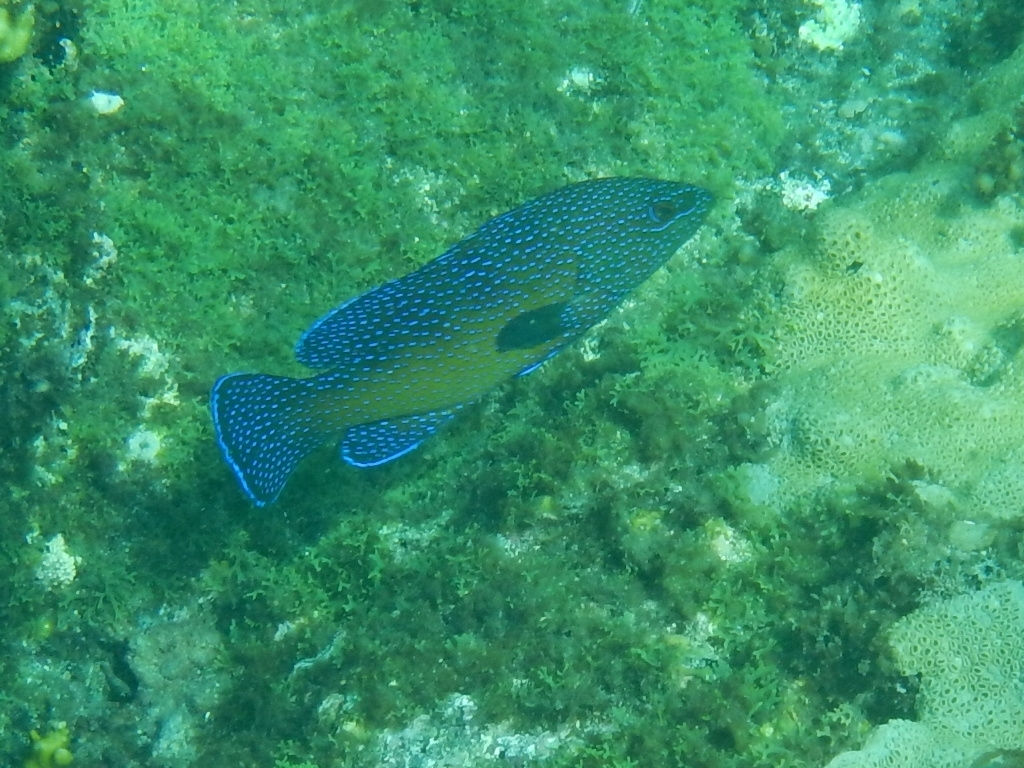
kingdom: Animalia
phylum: Chordata
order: Perciformes
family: Serranidae
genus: Cephalopholis
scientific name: Cephalopholis taeniops
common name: African hind
